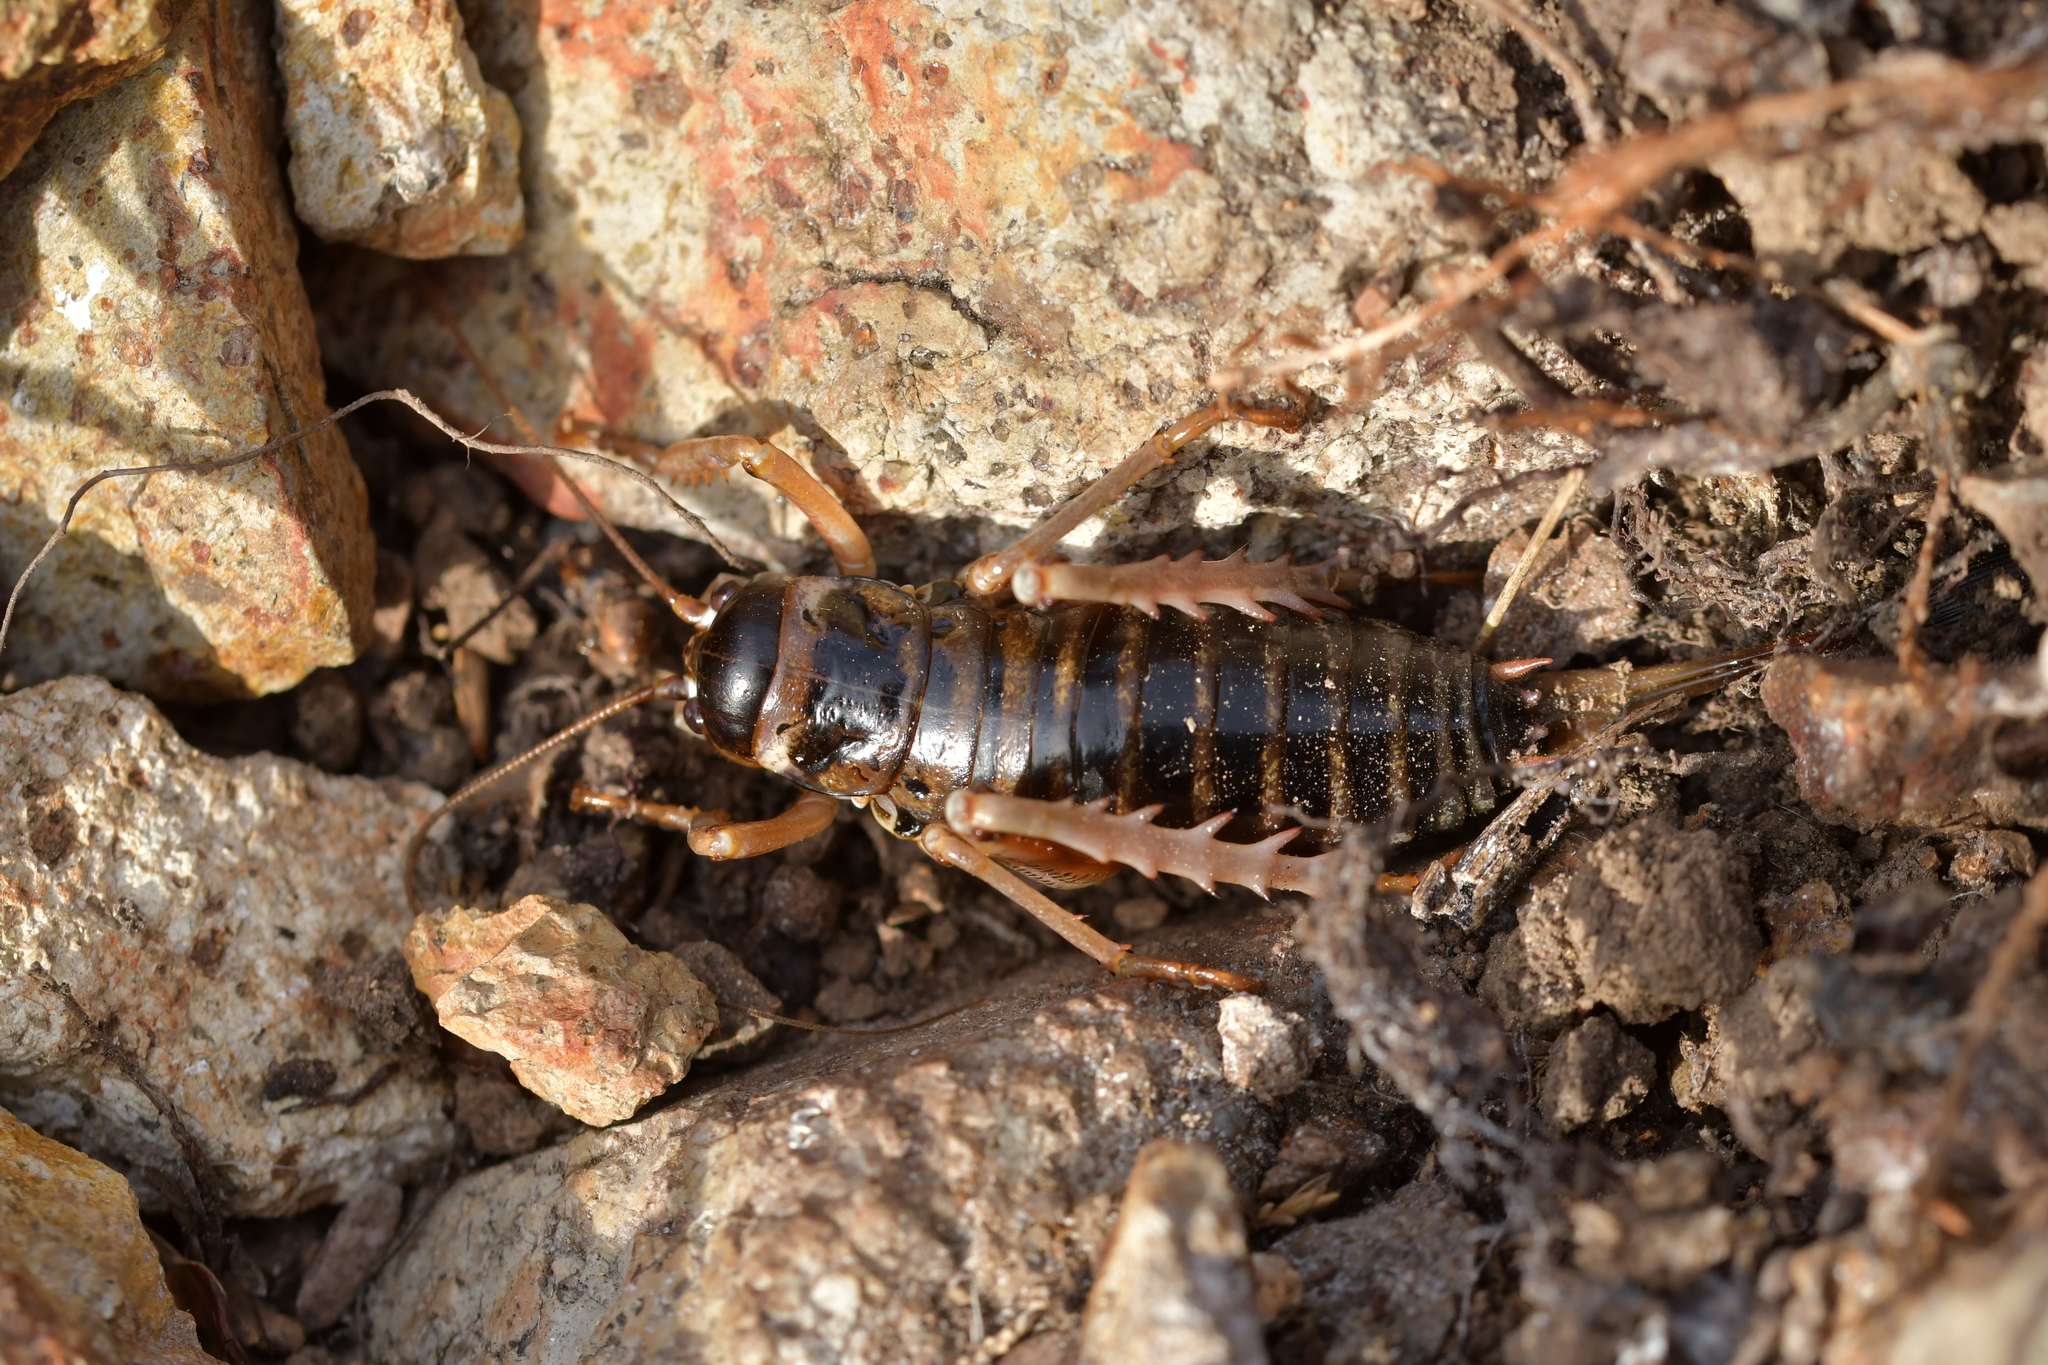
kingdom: Animalia
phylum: Arthropoda
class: Insecta
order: Orthoptera
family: Anostostomatidae
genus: Hemideina
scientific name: Hemideina maori
